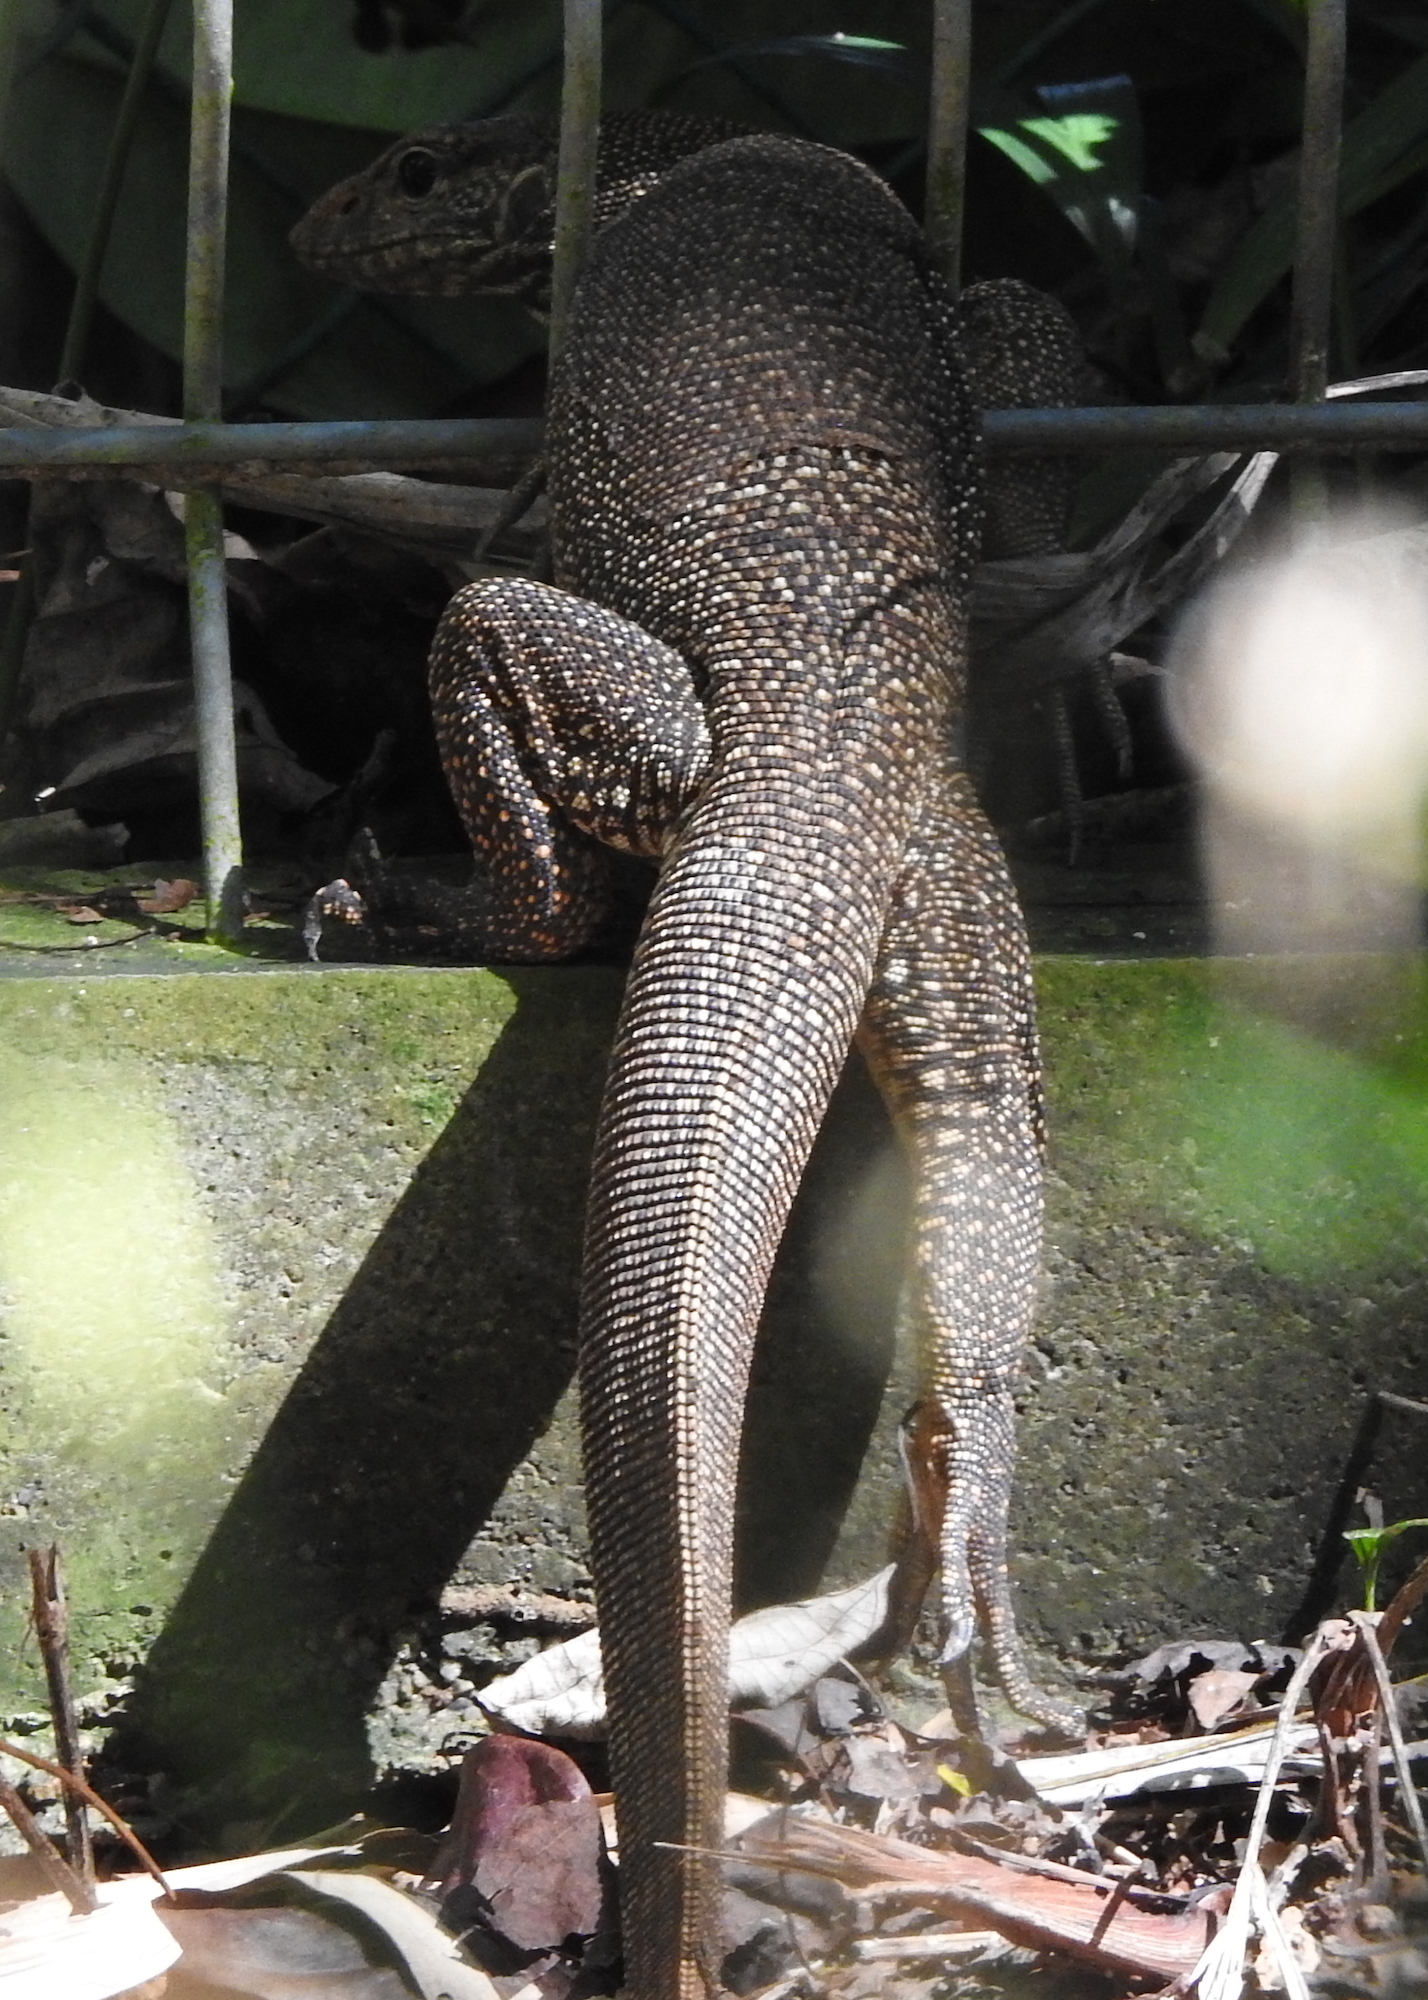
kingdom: Animalia
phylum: Chordata
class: Squamata
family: Varanidae
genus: Varanus
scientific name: Varanus nebulosus
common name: Clouded monitor
